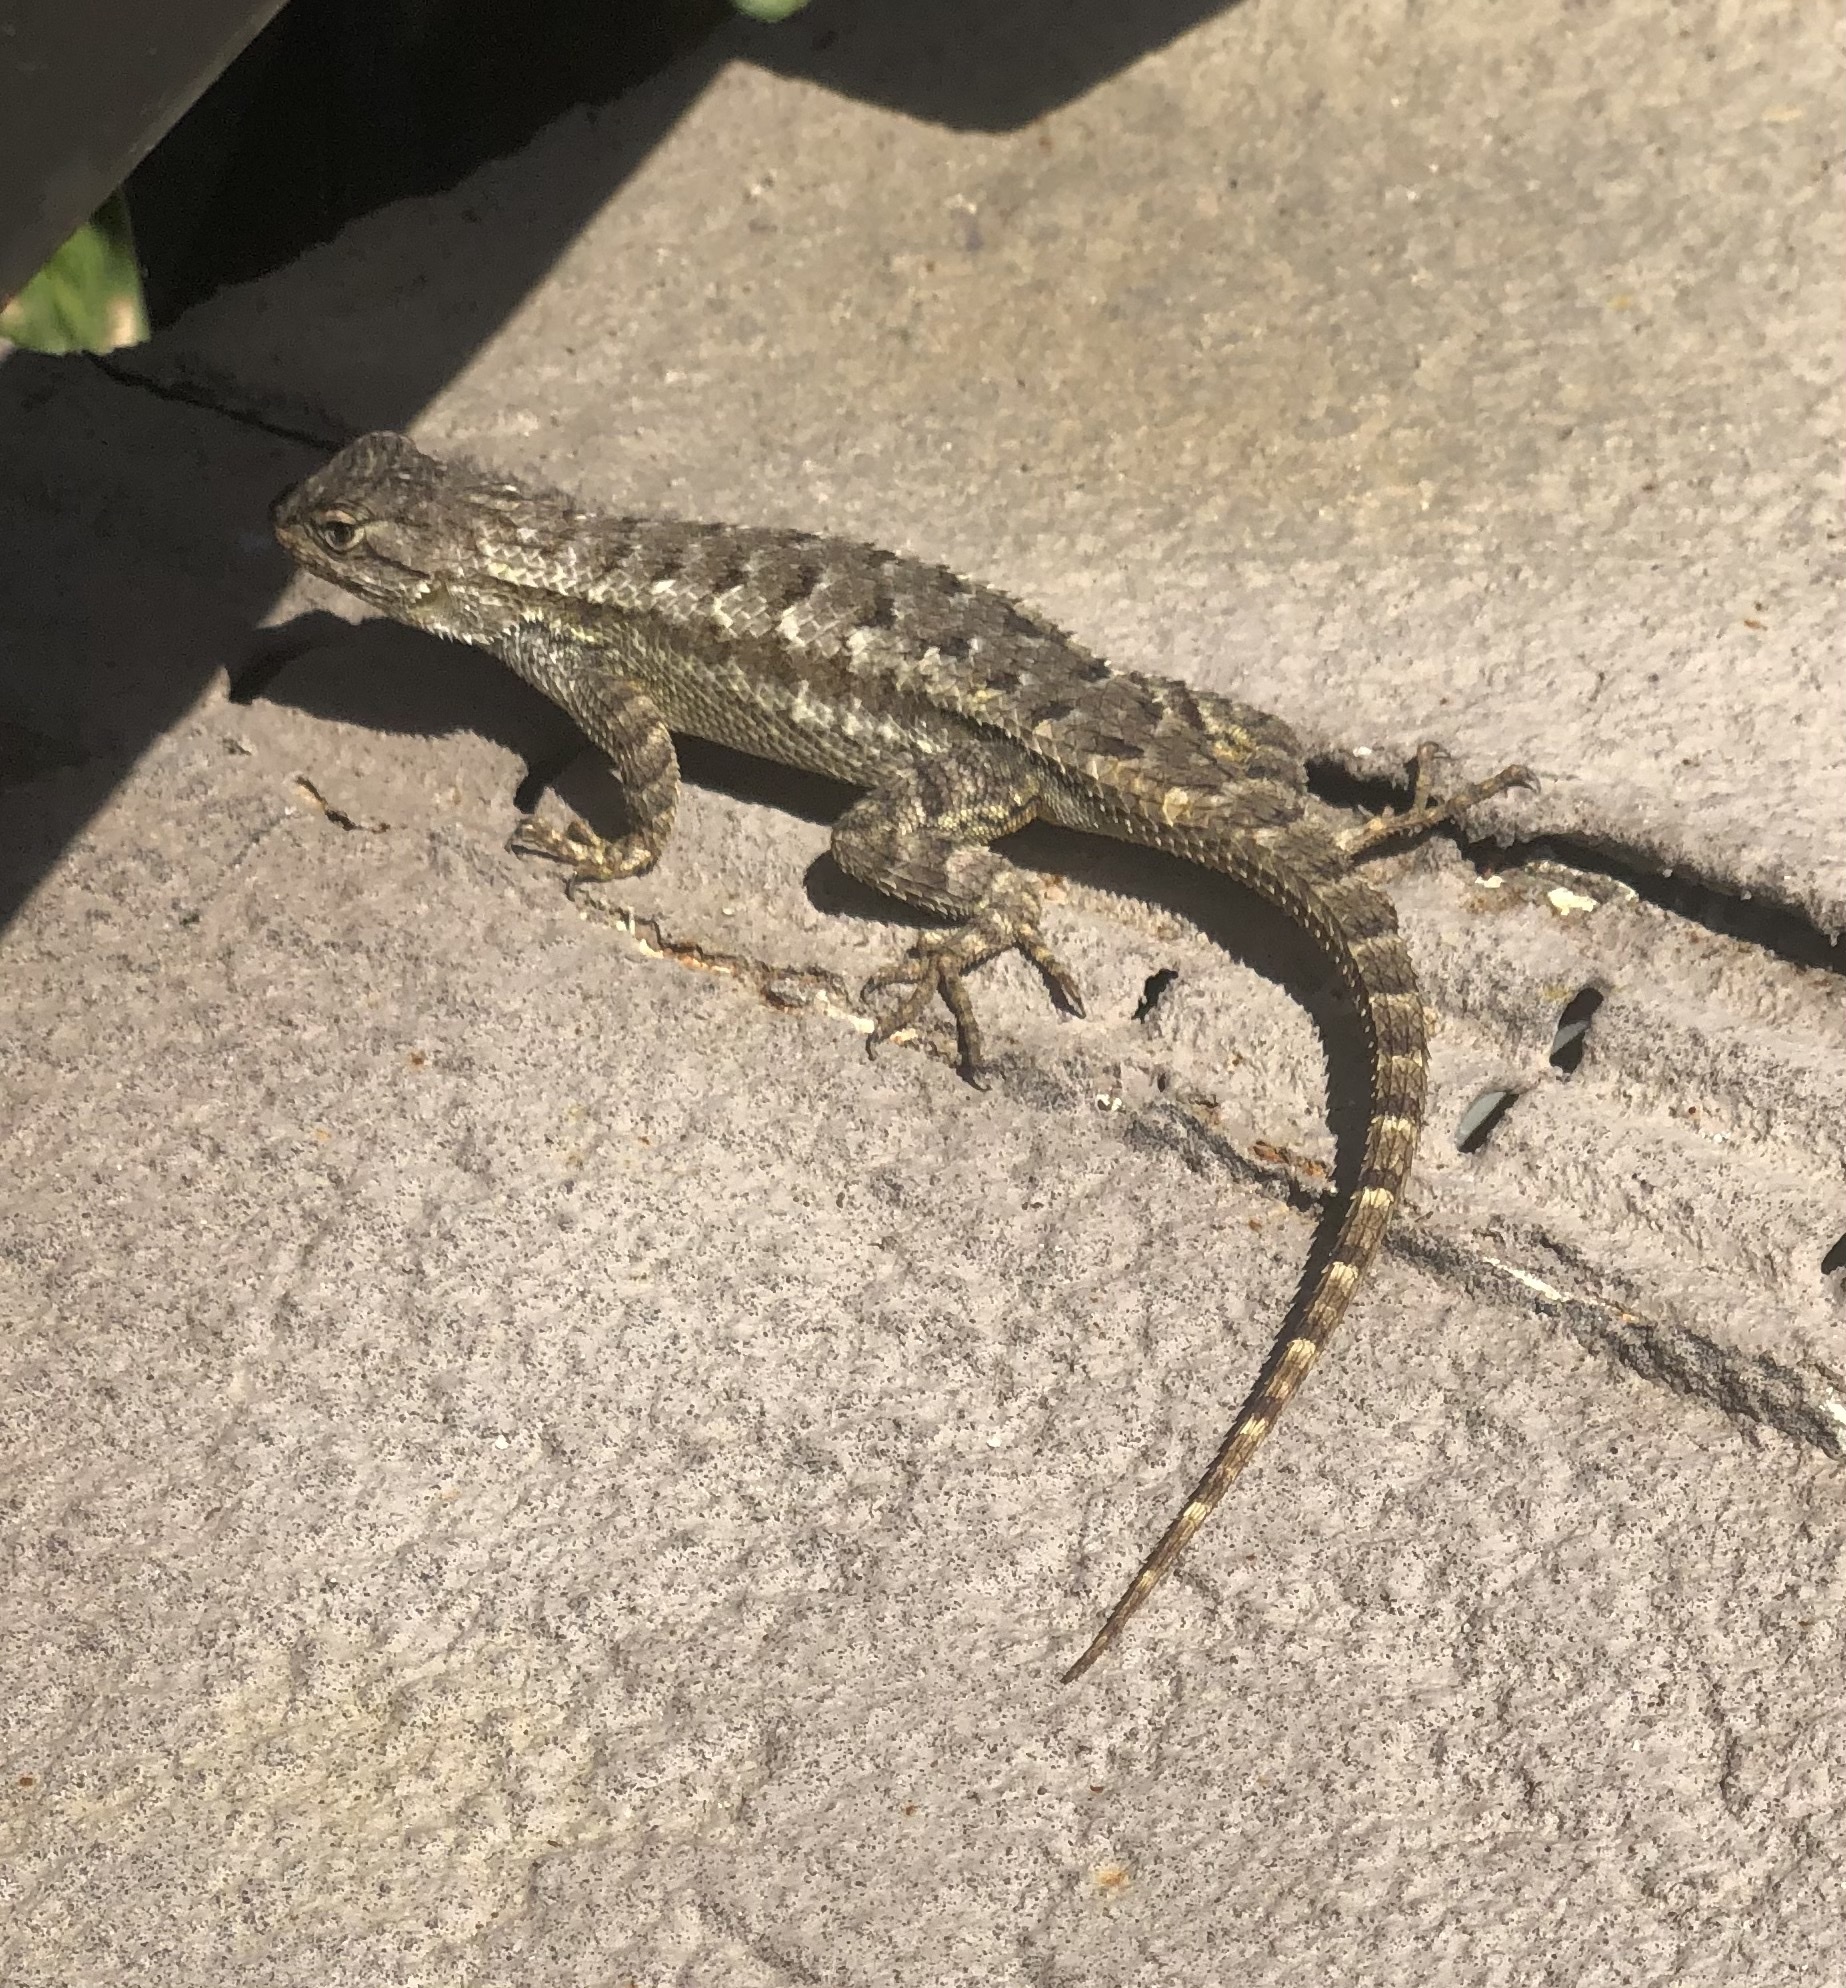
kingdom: Animalia
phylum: Chordata
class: Squamata
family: Phrynosomatidae
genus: Sceloporus
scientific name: Sceloporus occidentalis
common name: Western fence lizard
